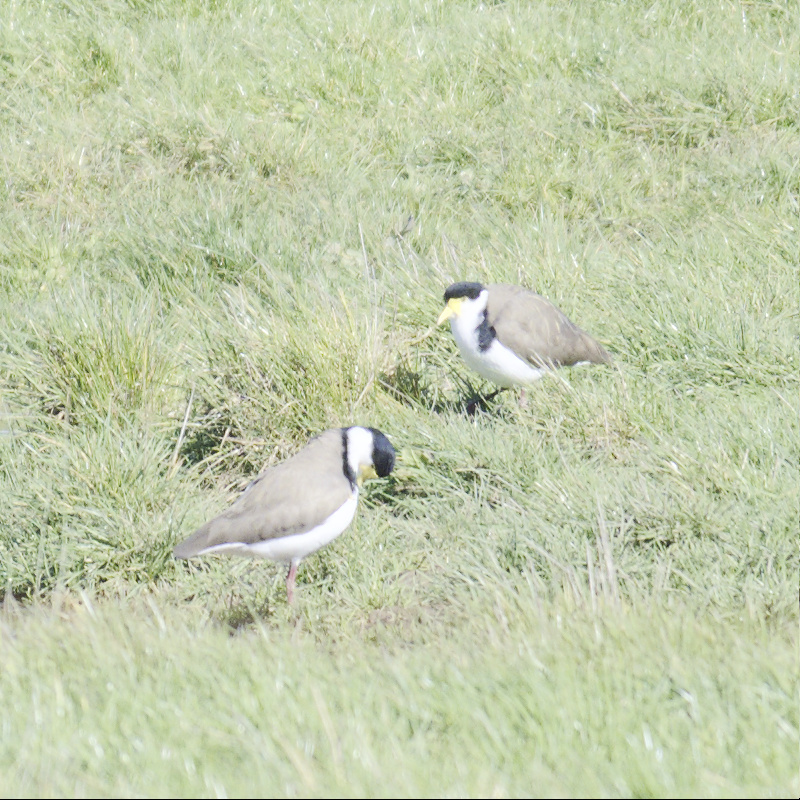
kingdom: Animalia
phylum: Chordata
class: Aves
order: Charadriiformes
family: Charadriidae
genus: Vanellus
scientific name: Vanellus miles
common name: Masked lapwing
